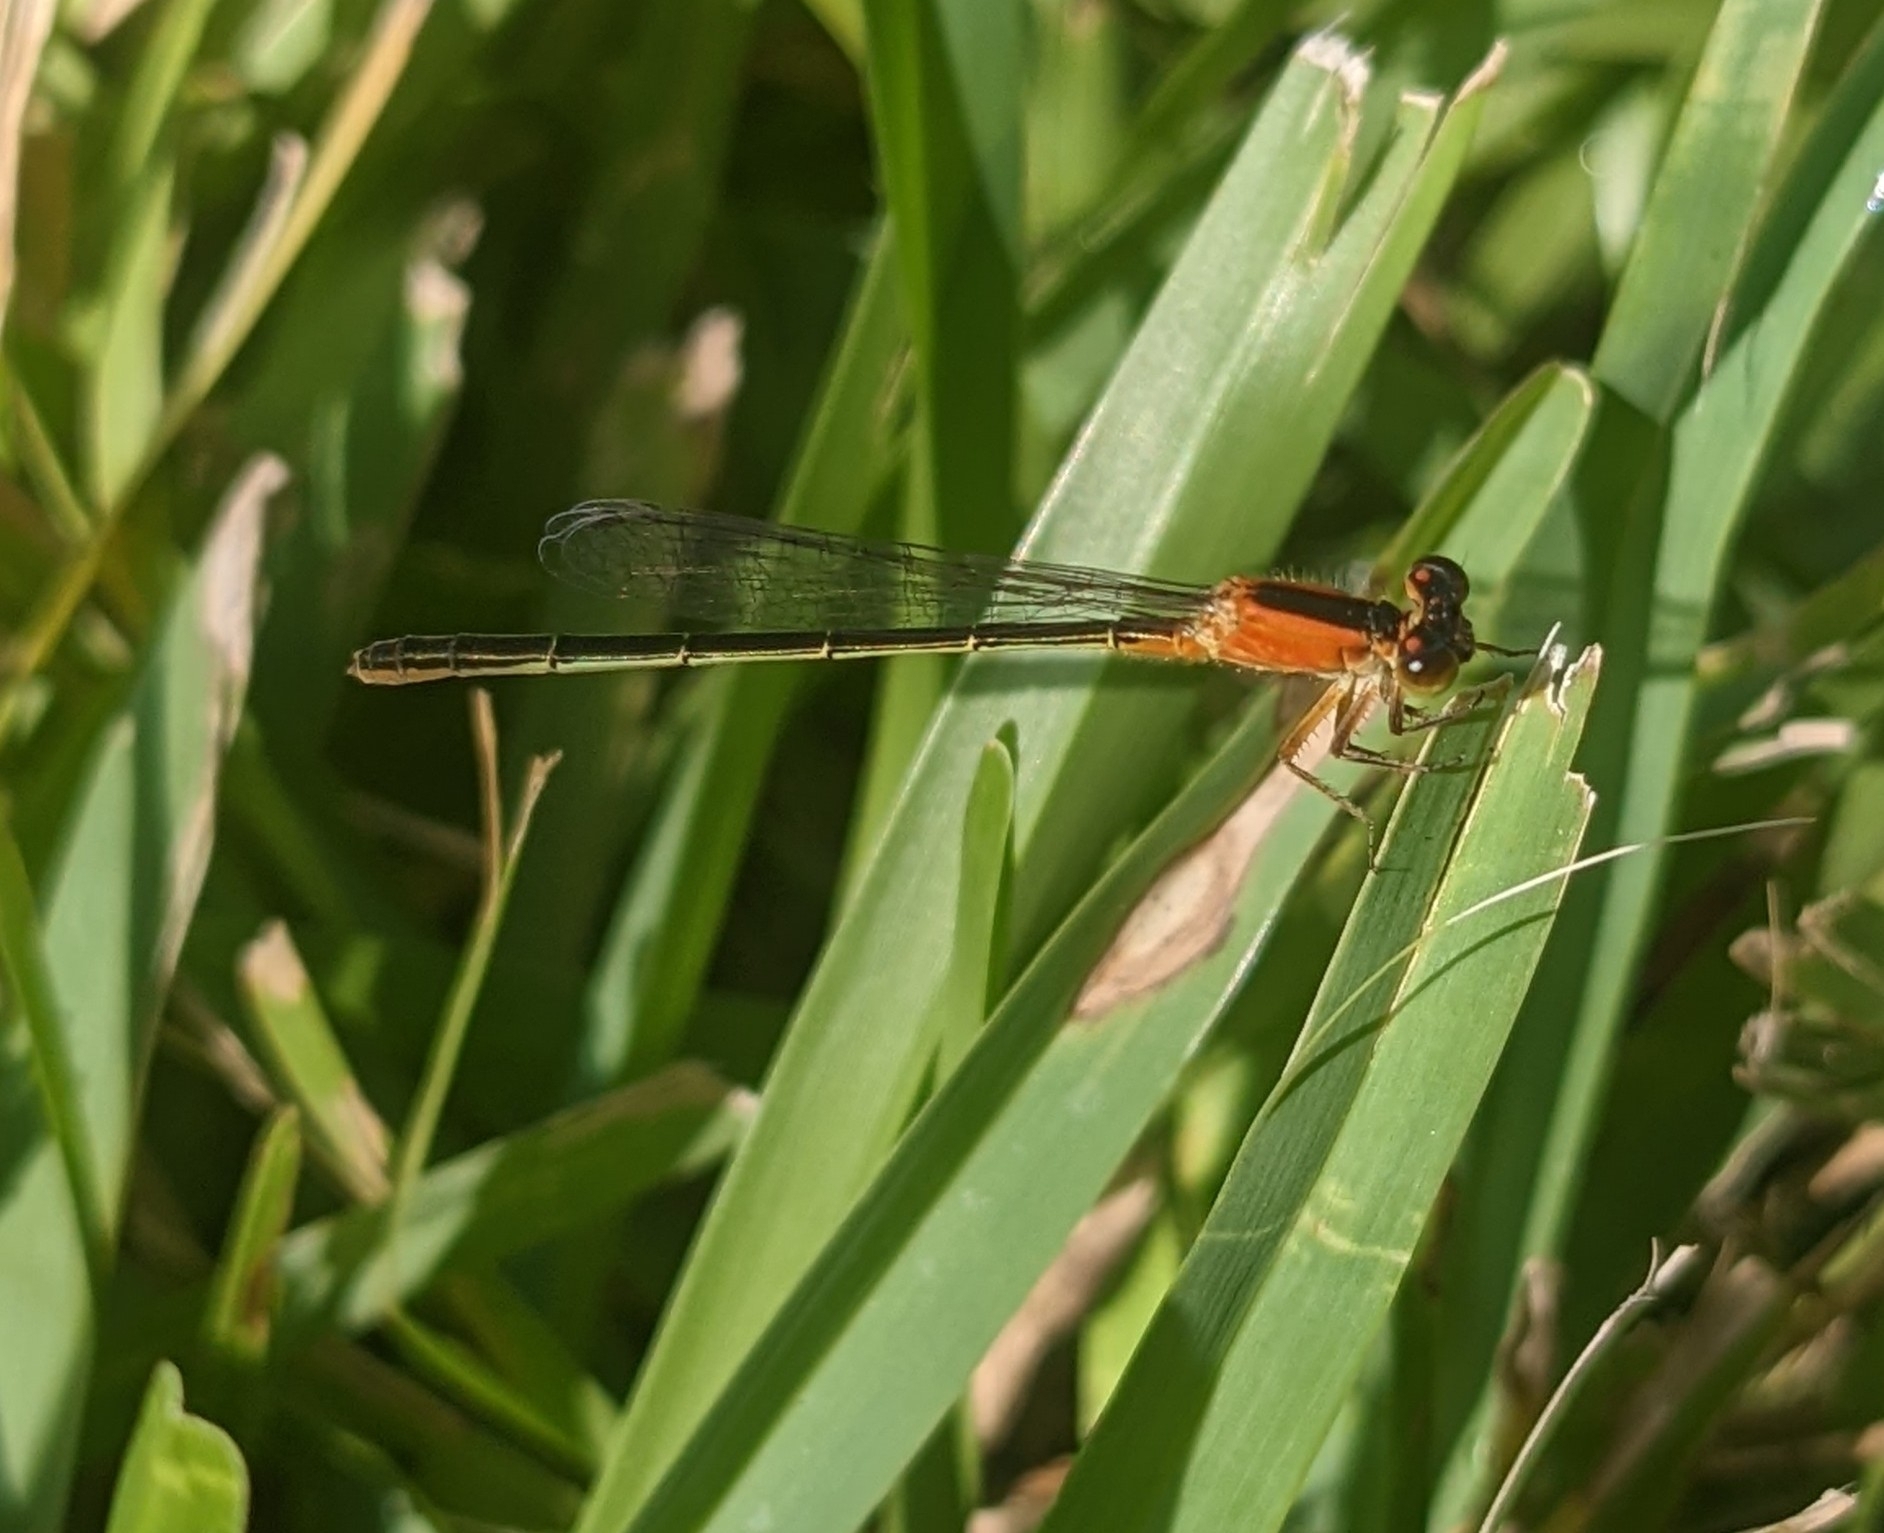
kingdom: Animalia
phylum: Arthropoda
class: Insecta
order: Odonata
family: Coenagrionidae
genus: Ischnura
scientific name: Ischnura ramburii
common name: Rambur's forktail
